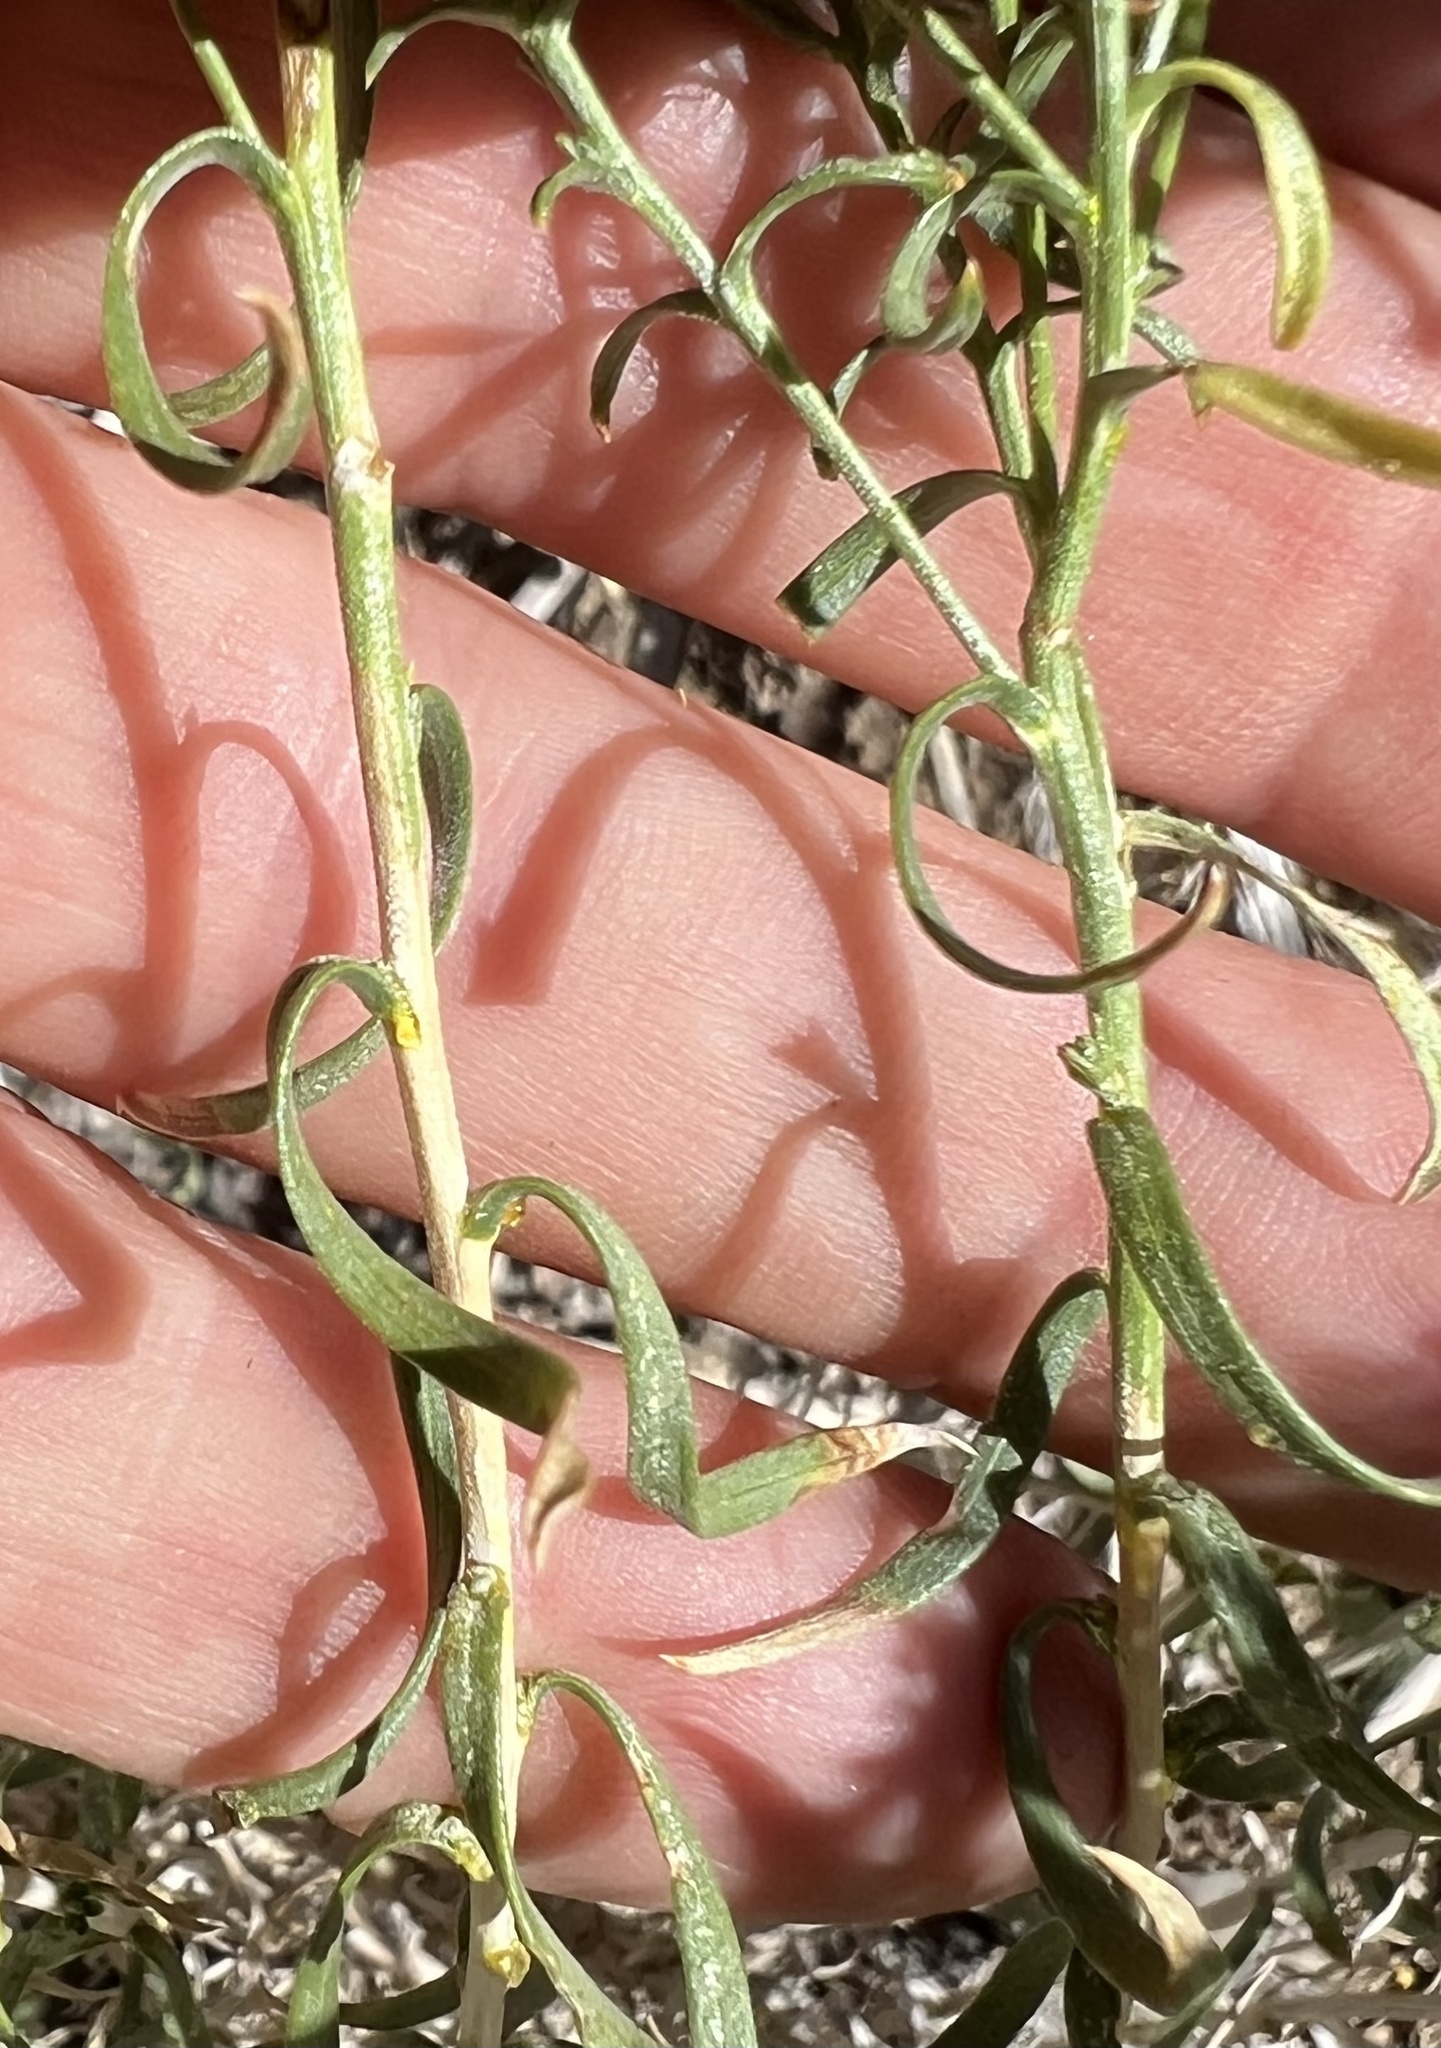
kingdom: Plantae
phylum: Tracheophyta
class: Magnoliopsida
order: Asterales
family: Asteraceae
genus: Chrysothamnus
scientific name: Chrysothamnus viscidiflorus
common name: Yellow rabbitbrush
